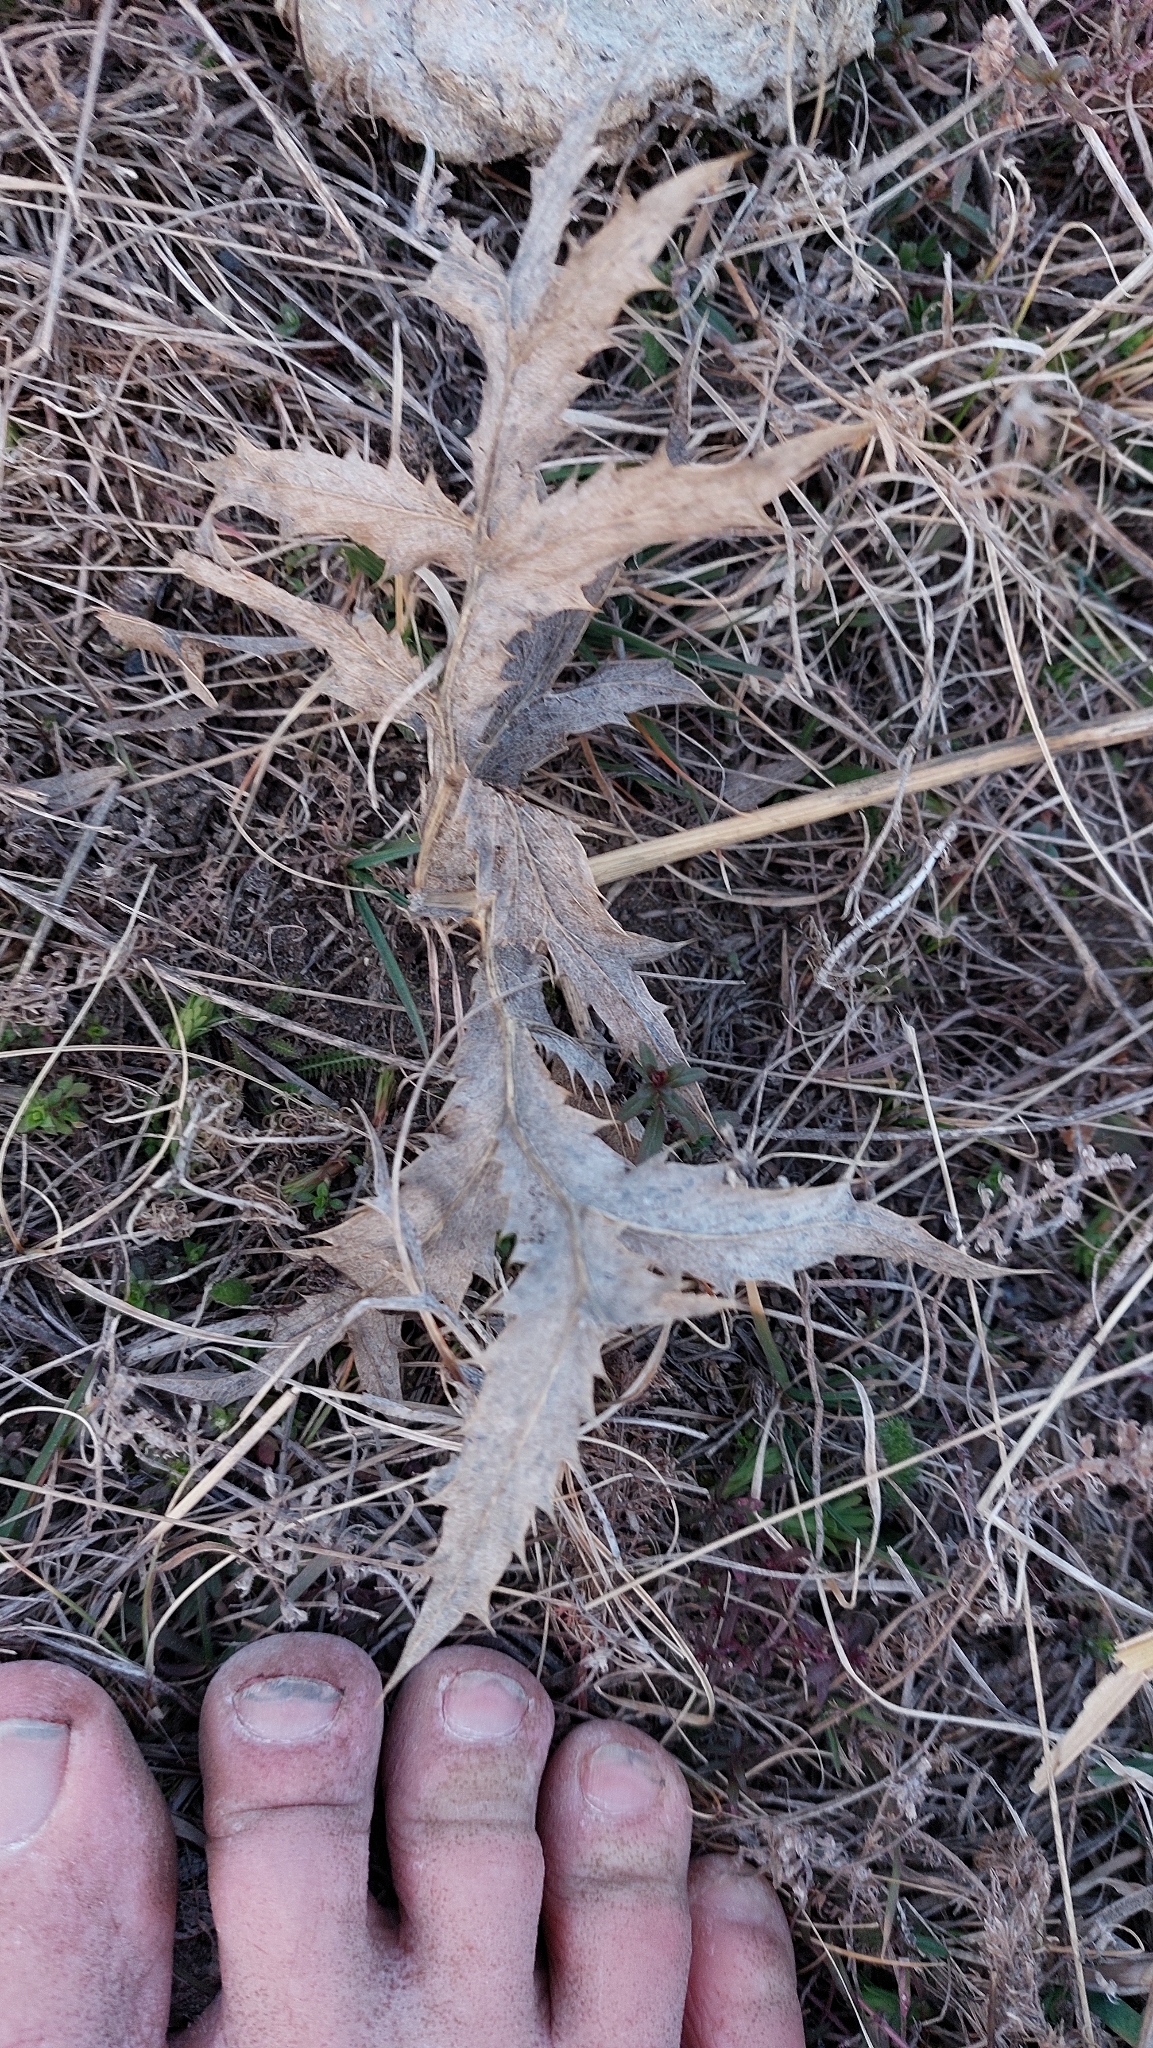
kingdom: Plantae
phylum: Tracheophyta
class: Magnoliopsida
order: Apiales
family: Apiaceae
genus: Eryngium
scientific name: Eryngium campestre
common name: Field eryngo
